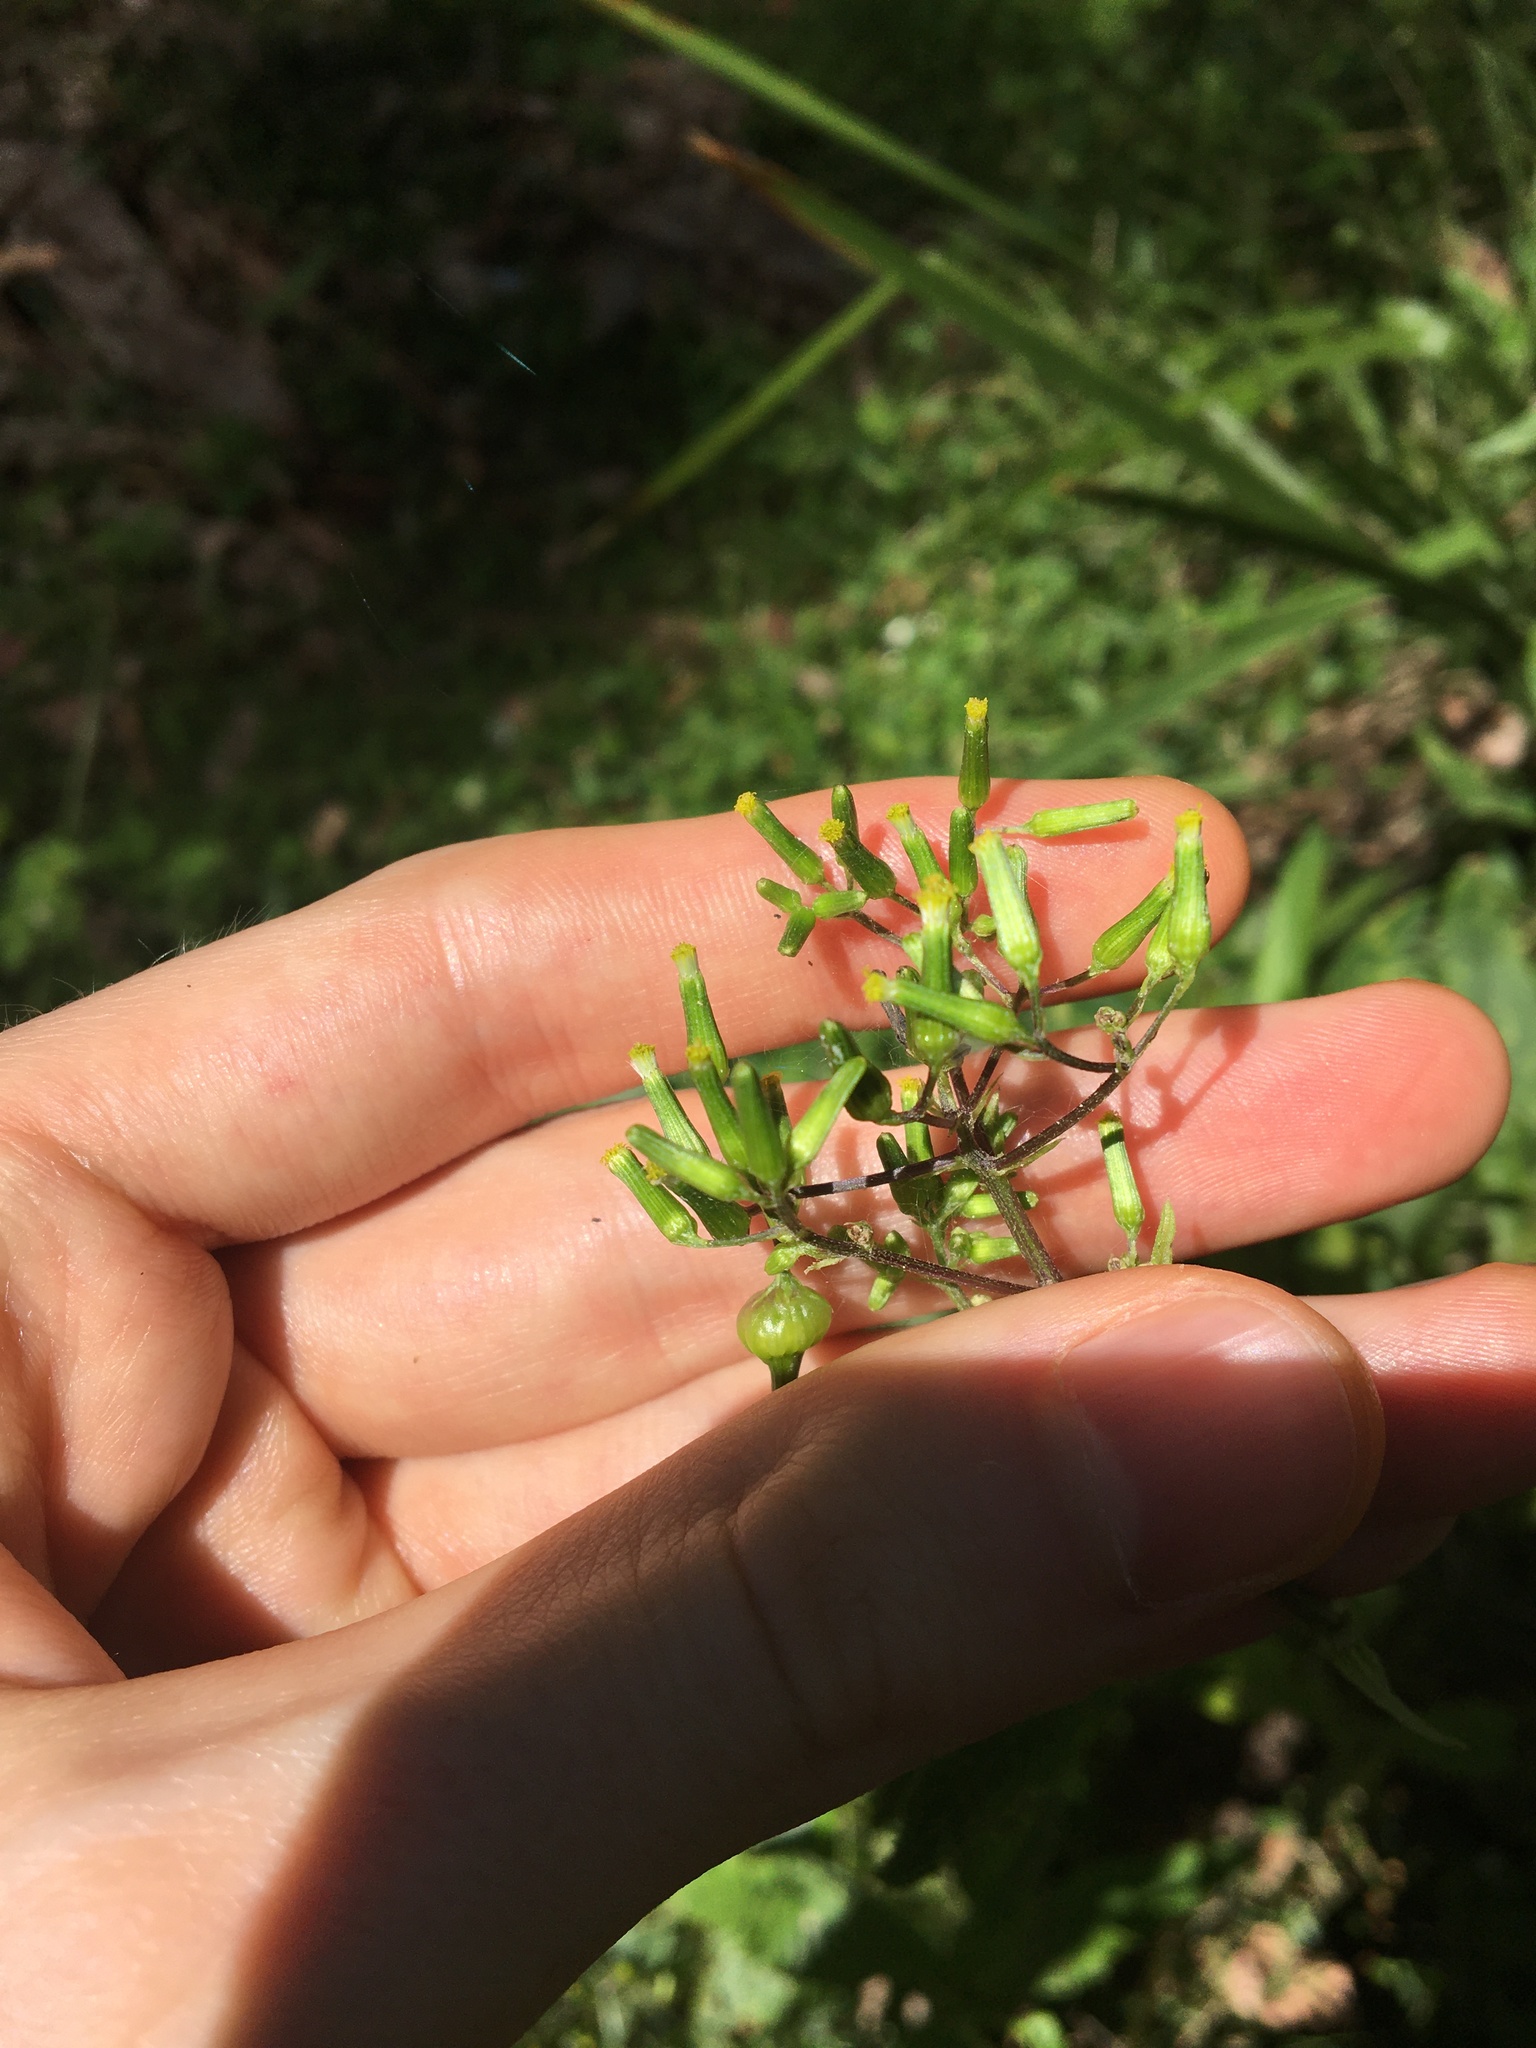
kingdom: Plantae
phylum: Tracheophyta
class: Magnoliopsida
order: Asterales
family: Asteraceae
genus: Senecio
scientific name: Senecio minimus
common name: Toothed fireweed
